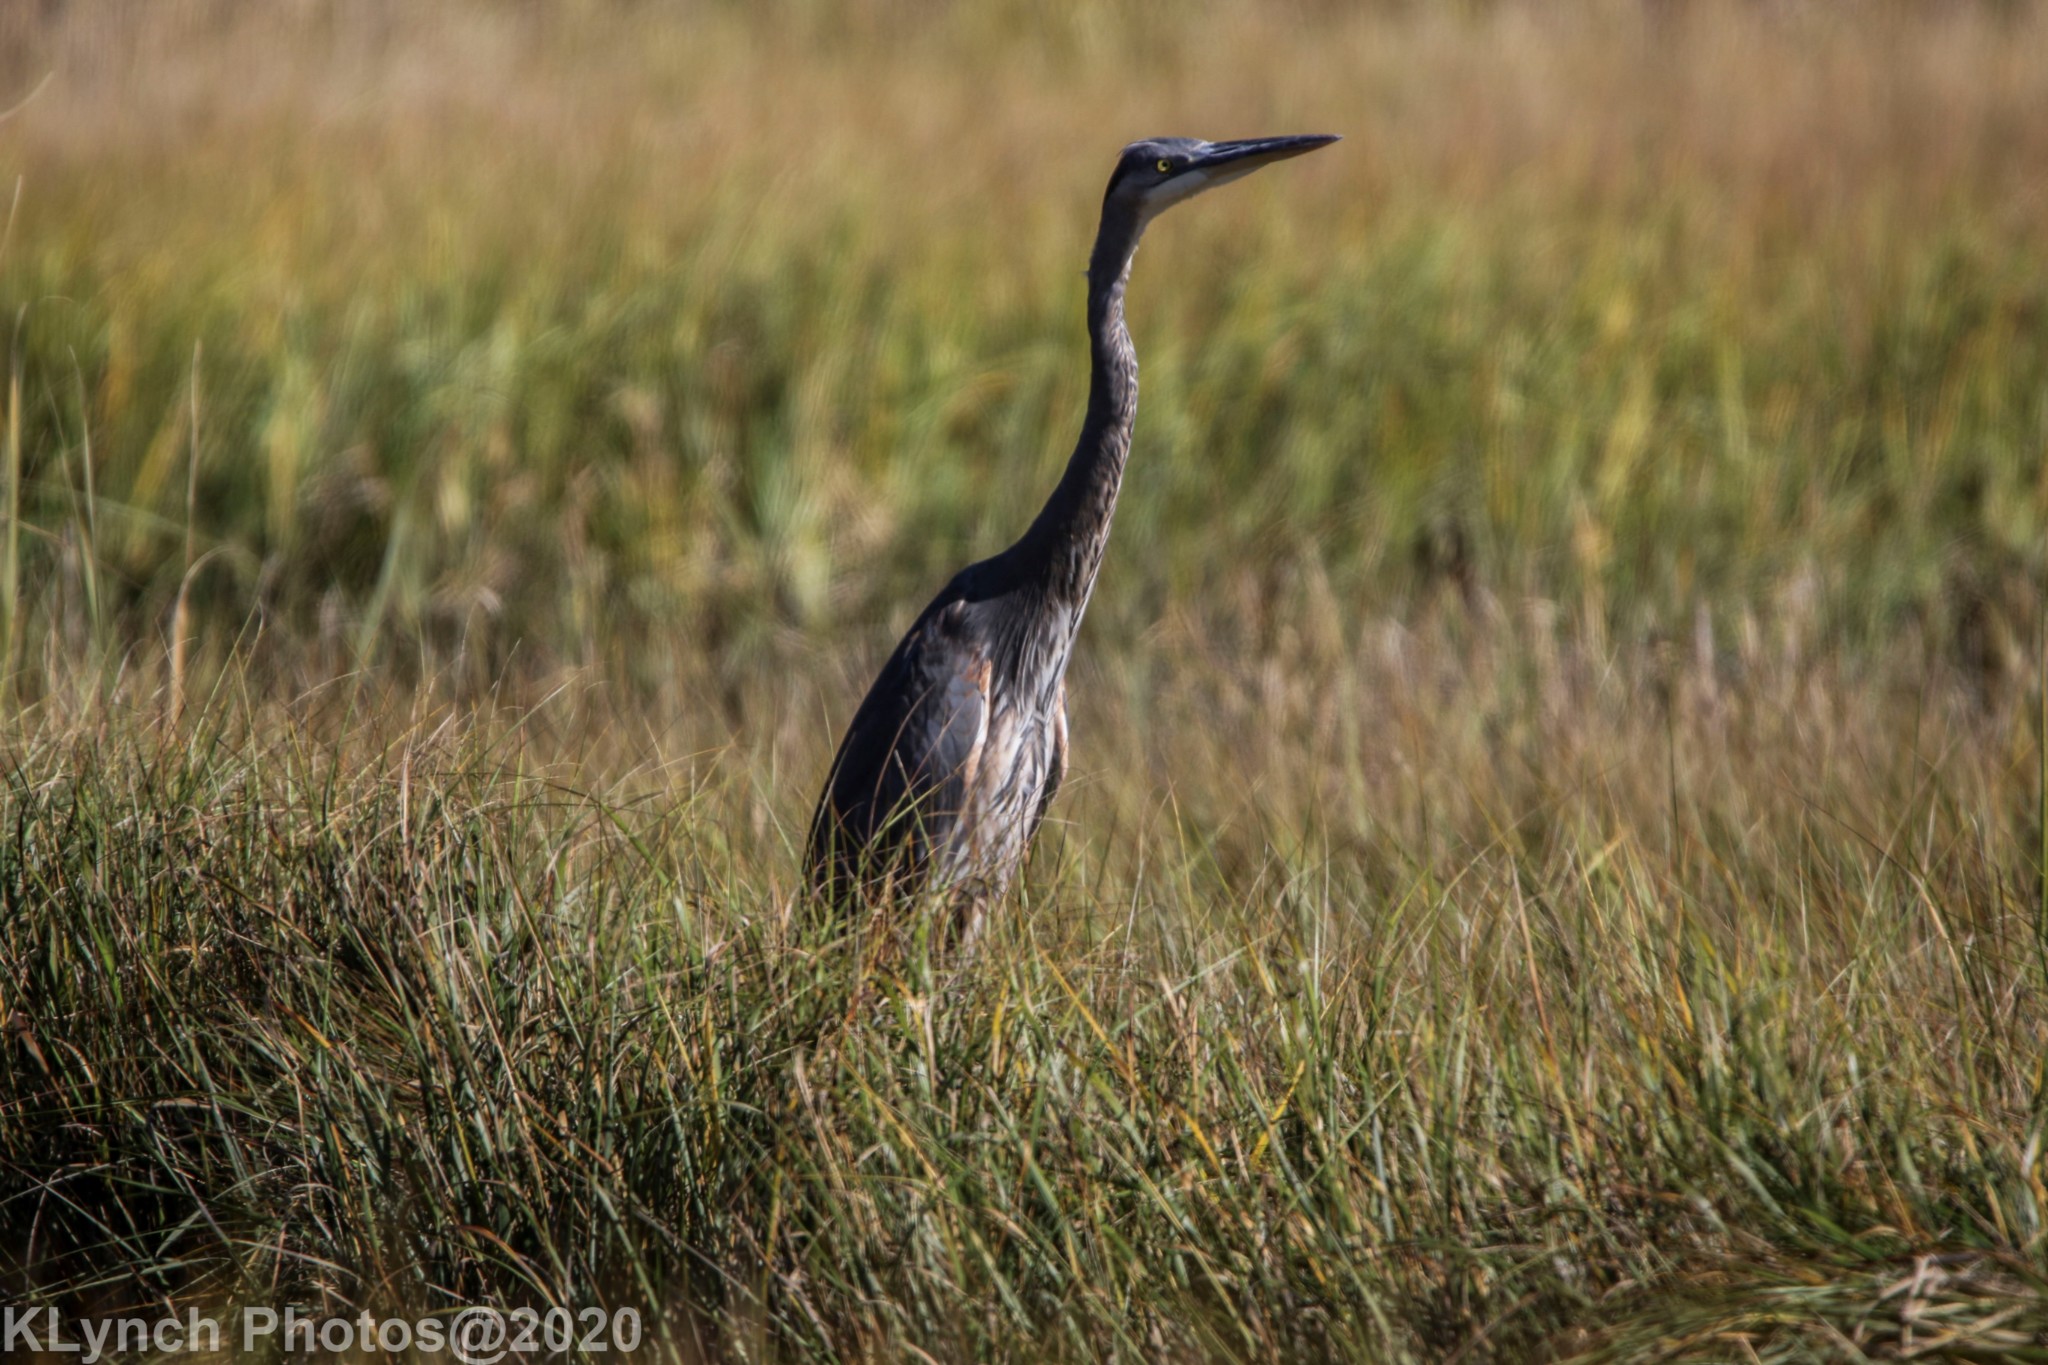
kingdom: Animalia
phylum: Chordata
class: Aves
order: Pelecaniformes
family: Ardeidae
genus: Ardea
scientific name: Ardea herodias
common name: Great blue heron
